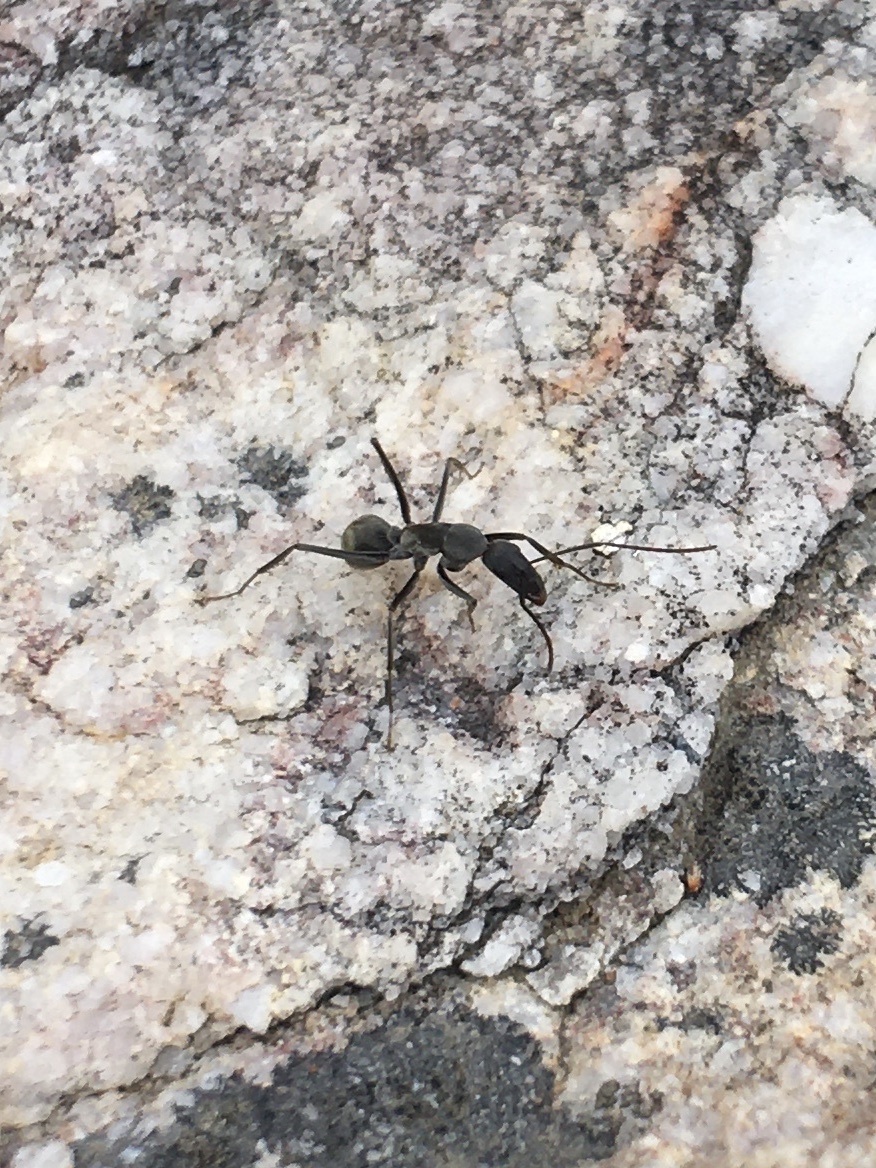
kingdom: Animalia
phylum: Arthropoda
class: Insecta
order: Hymenoptera
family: Formicidae
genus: Camponotus
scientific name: Camponotus angusticeps
